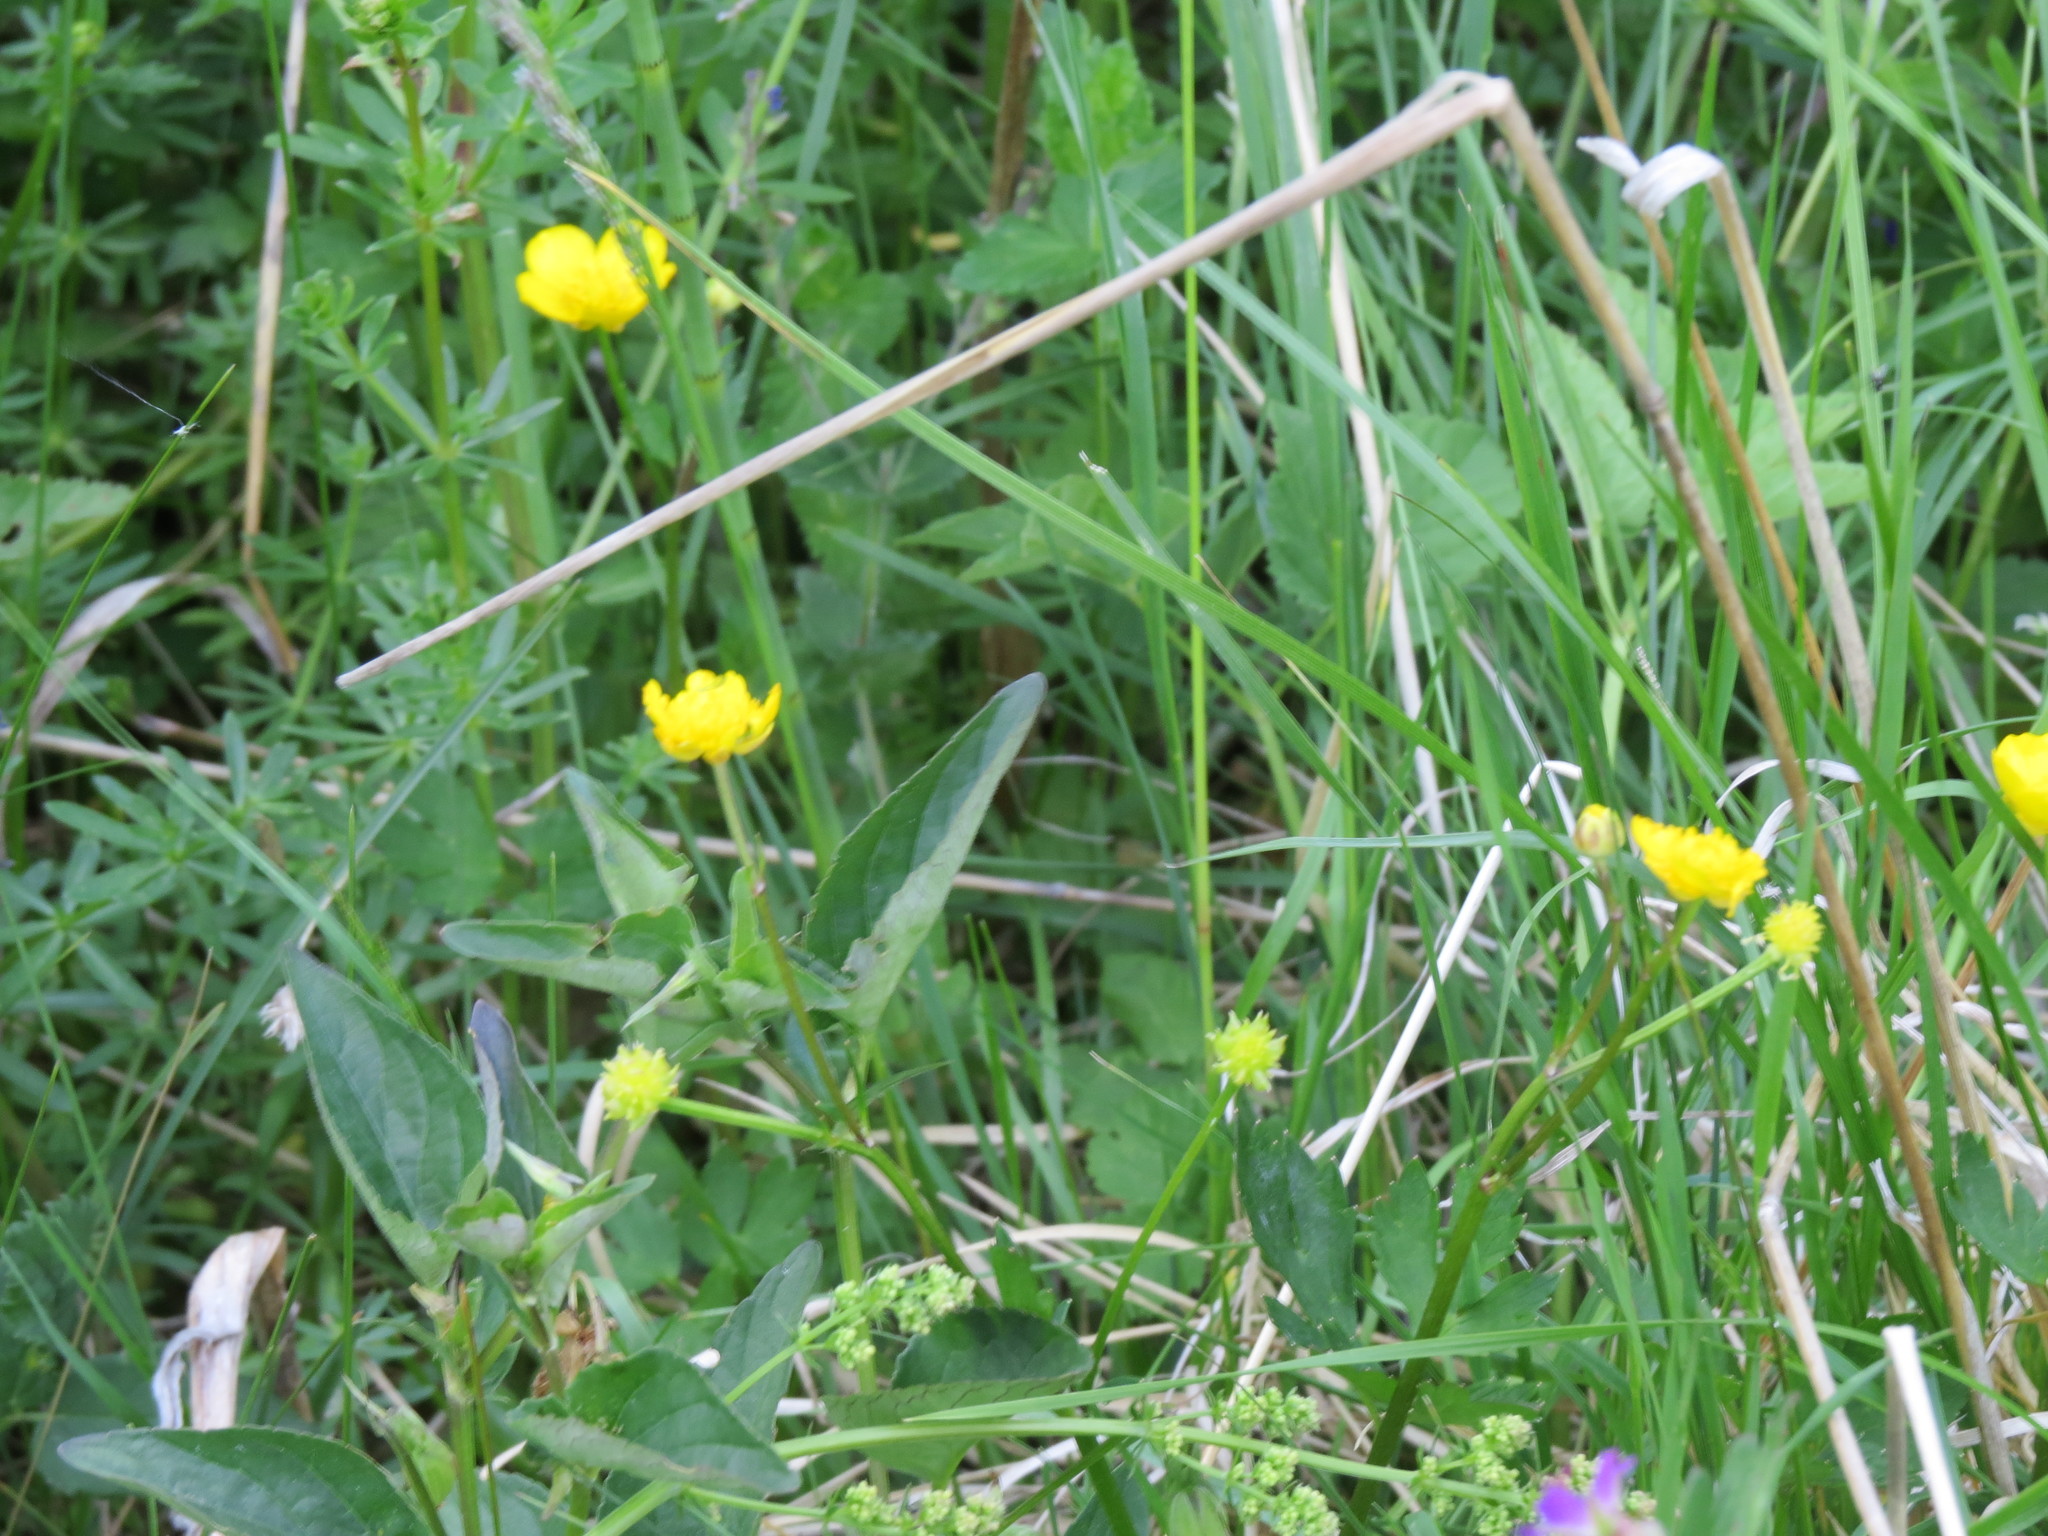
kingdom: Plantae
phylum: Tracheophyta
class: Magnoliopsida
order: Ranunculales
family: Ranunculaceae
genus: Ranunculus
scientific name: Ranunculus repens
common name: Creeping buttercup
